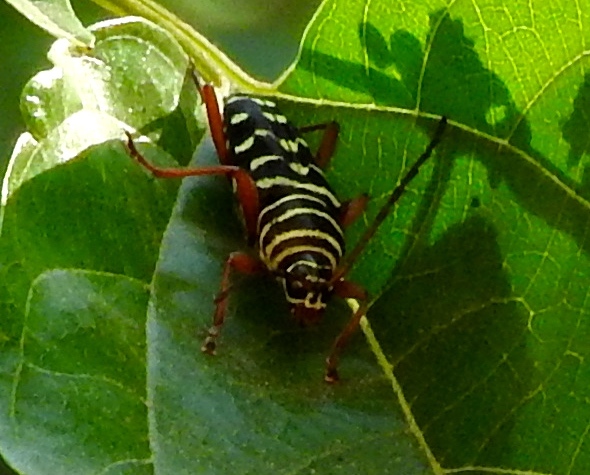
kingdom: Animalia
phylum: Arthropoda
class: Insecta
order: Coleoptera
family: Cerambycidae
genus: Placosternus
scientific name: Placosternus difficilis
